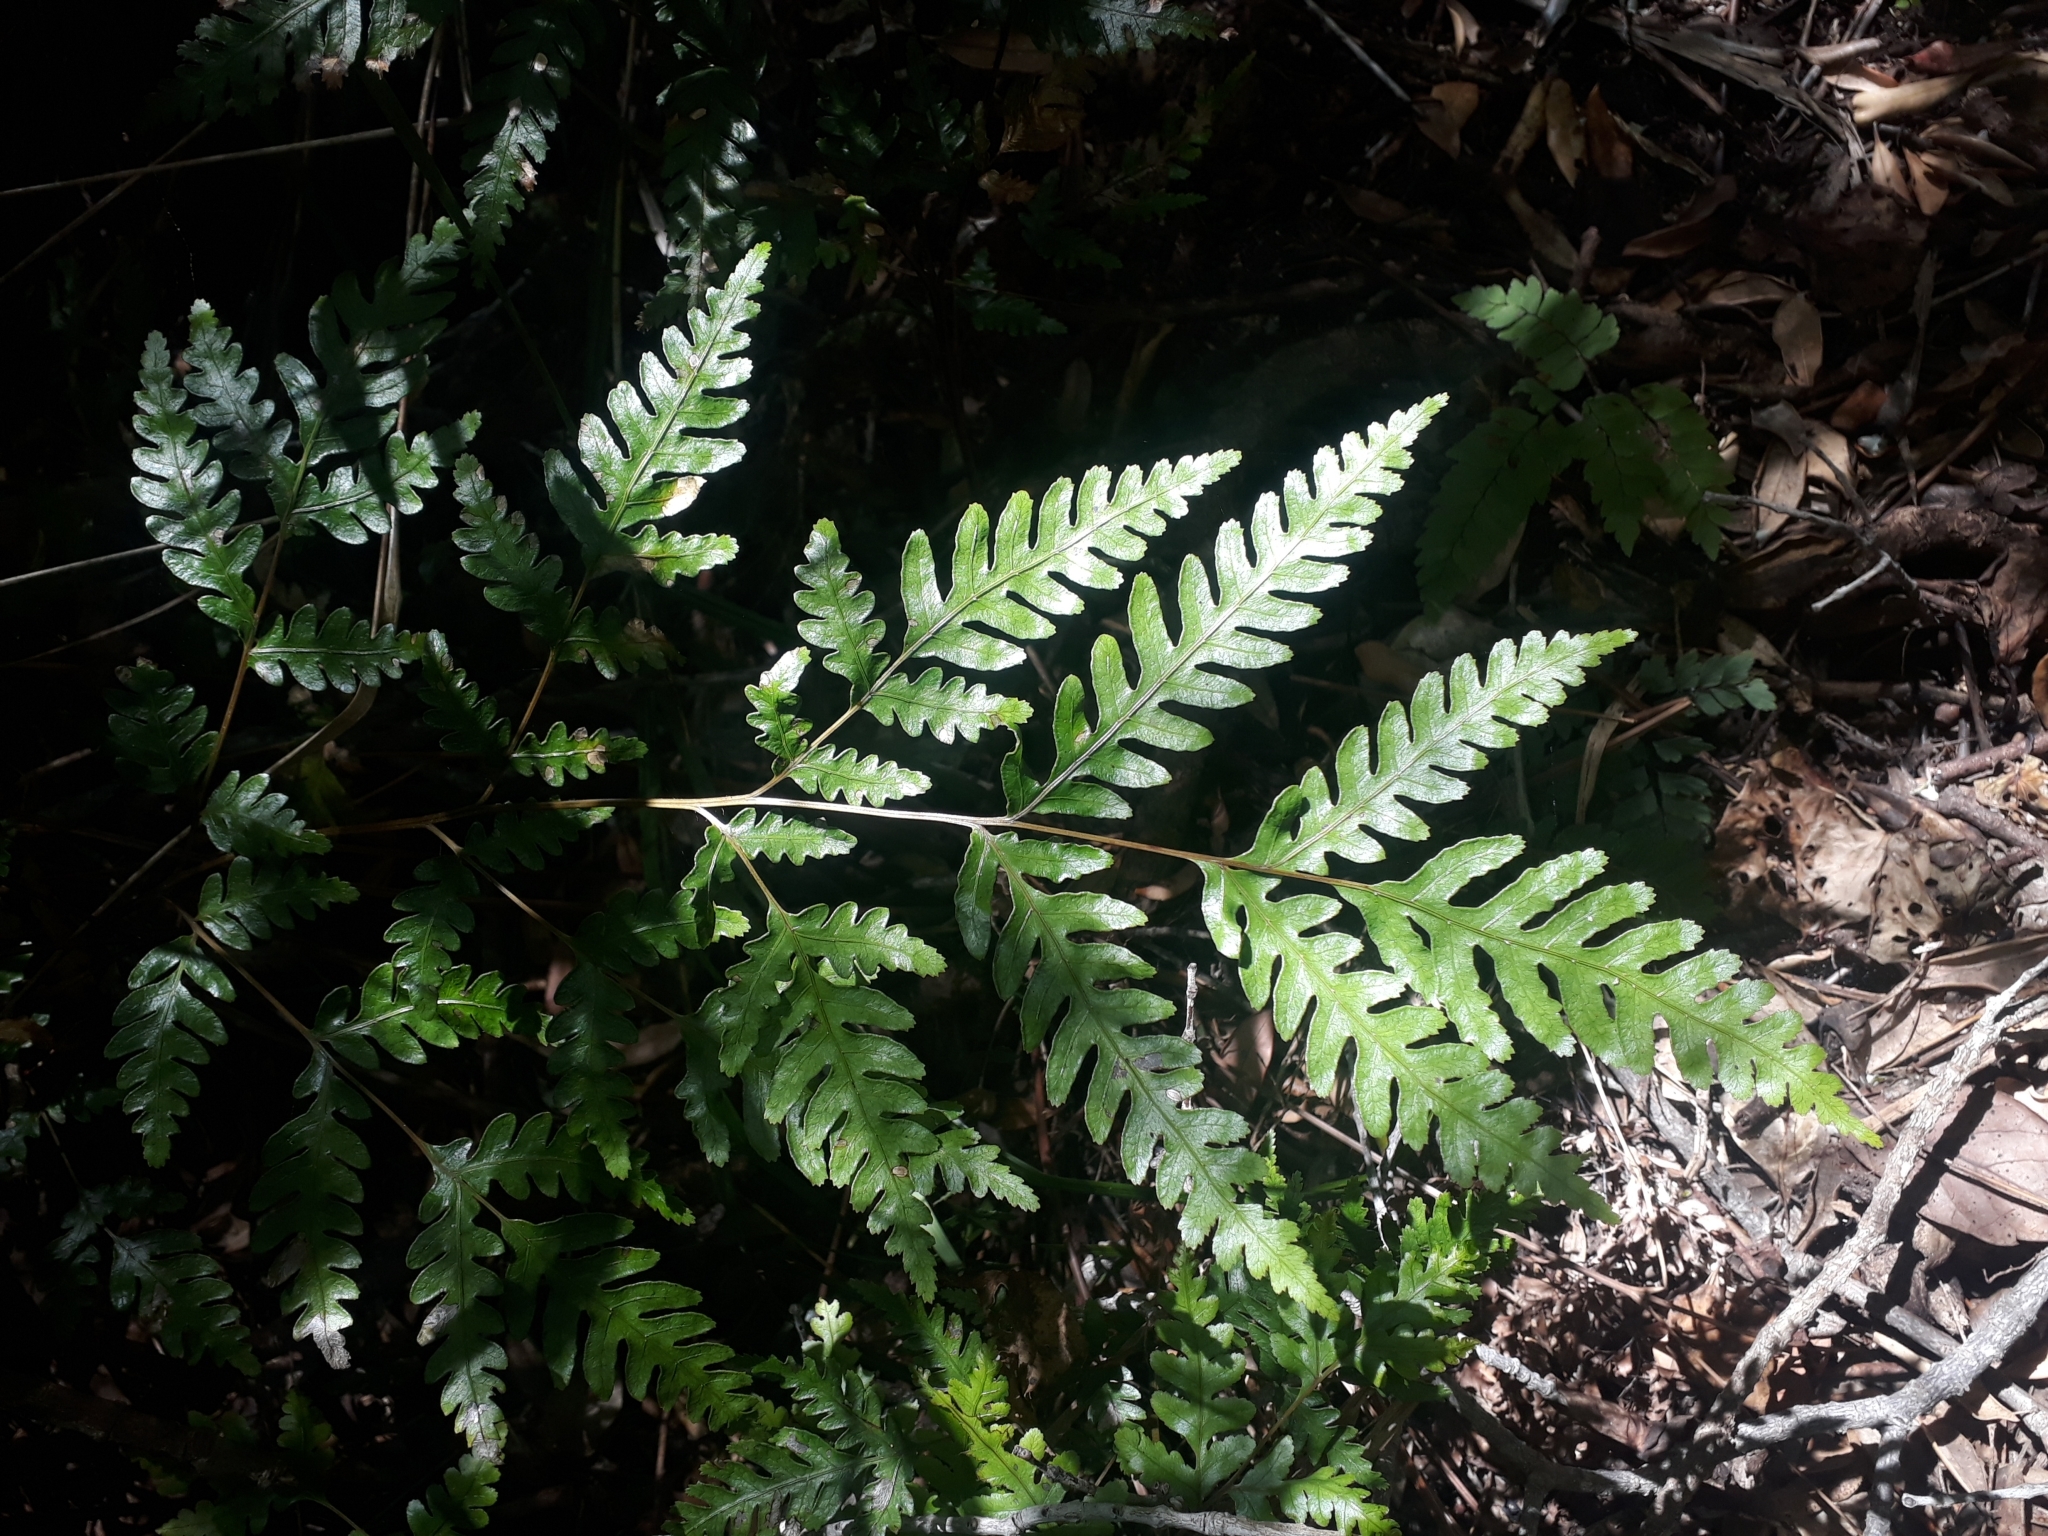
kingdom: Plantae
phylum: Tracheophyta
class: Polypodiopsida
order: Polypodiales
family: Pteridaceae
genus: Pteris
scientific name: Pteris carsei
